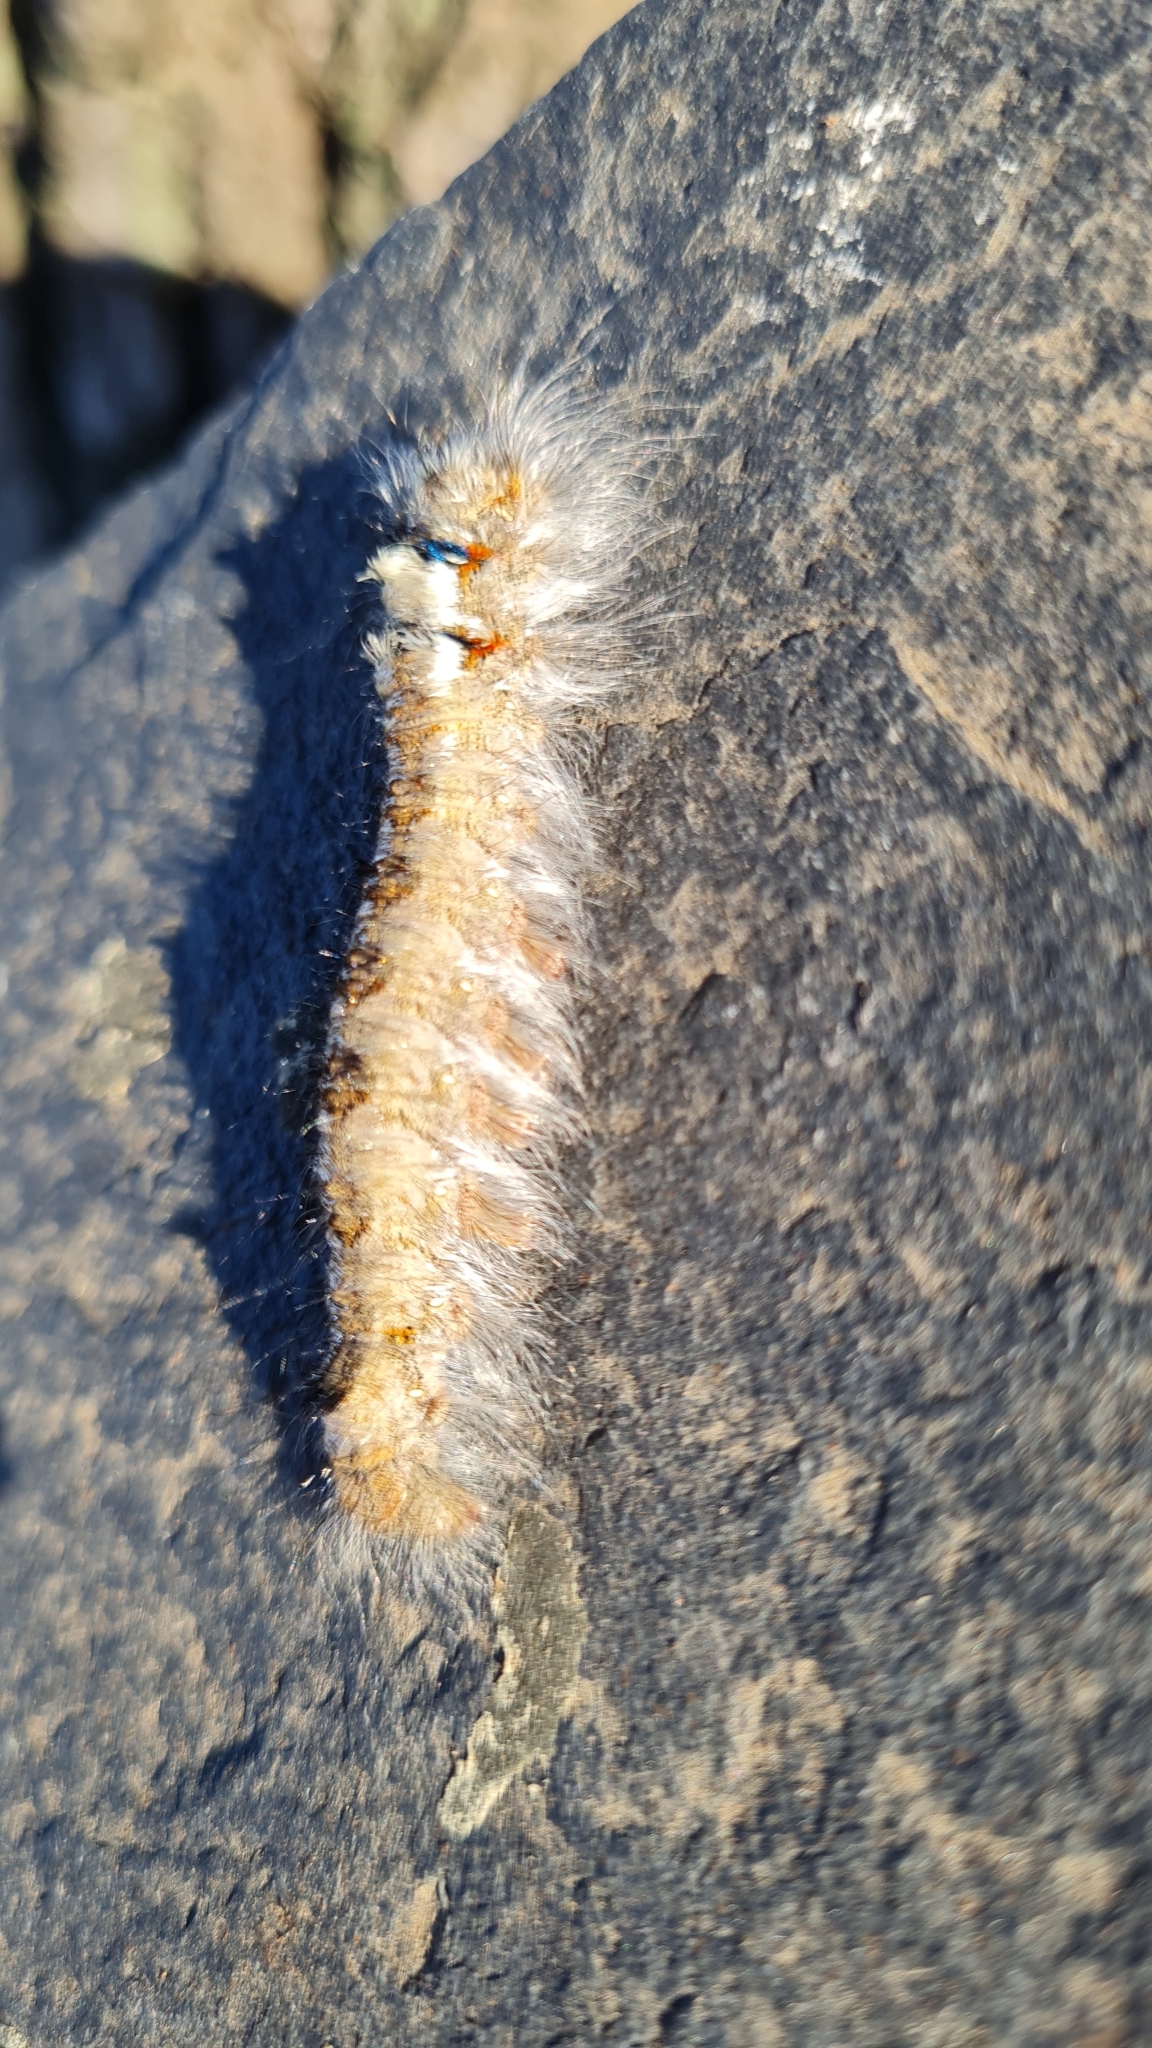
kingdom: Animalia
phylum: Arthropoda
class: Insecta
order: Lepidoptera
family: Lasiocampidae
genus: Dendrolimus
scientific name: Dendrolimus pini
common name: Pine-tree lappet
